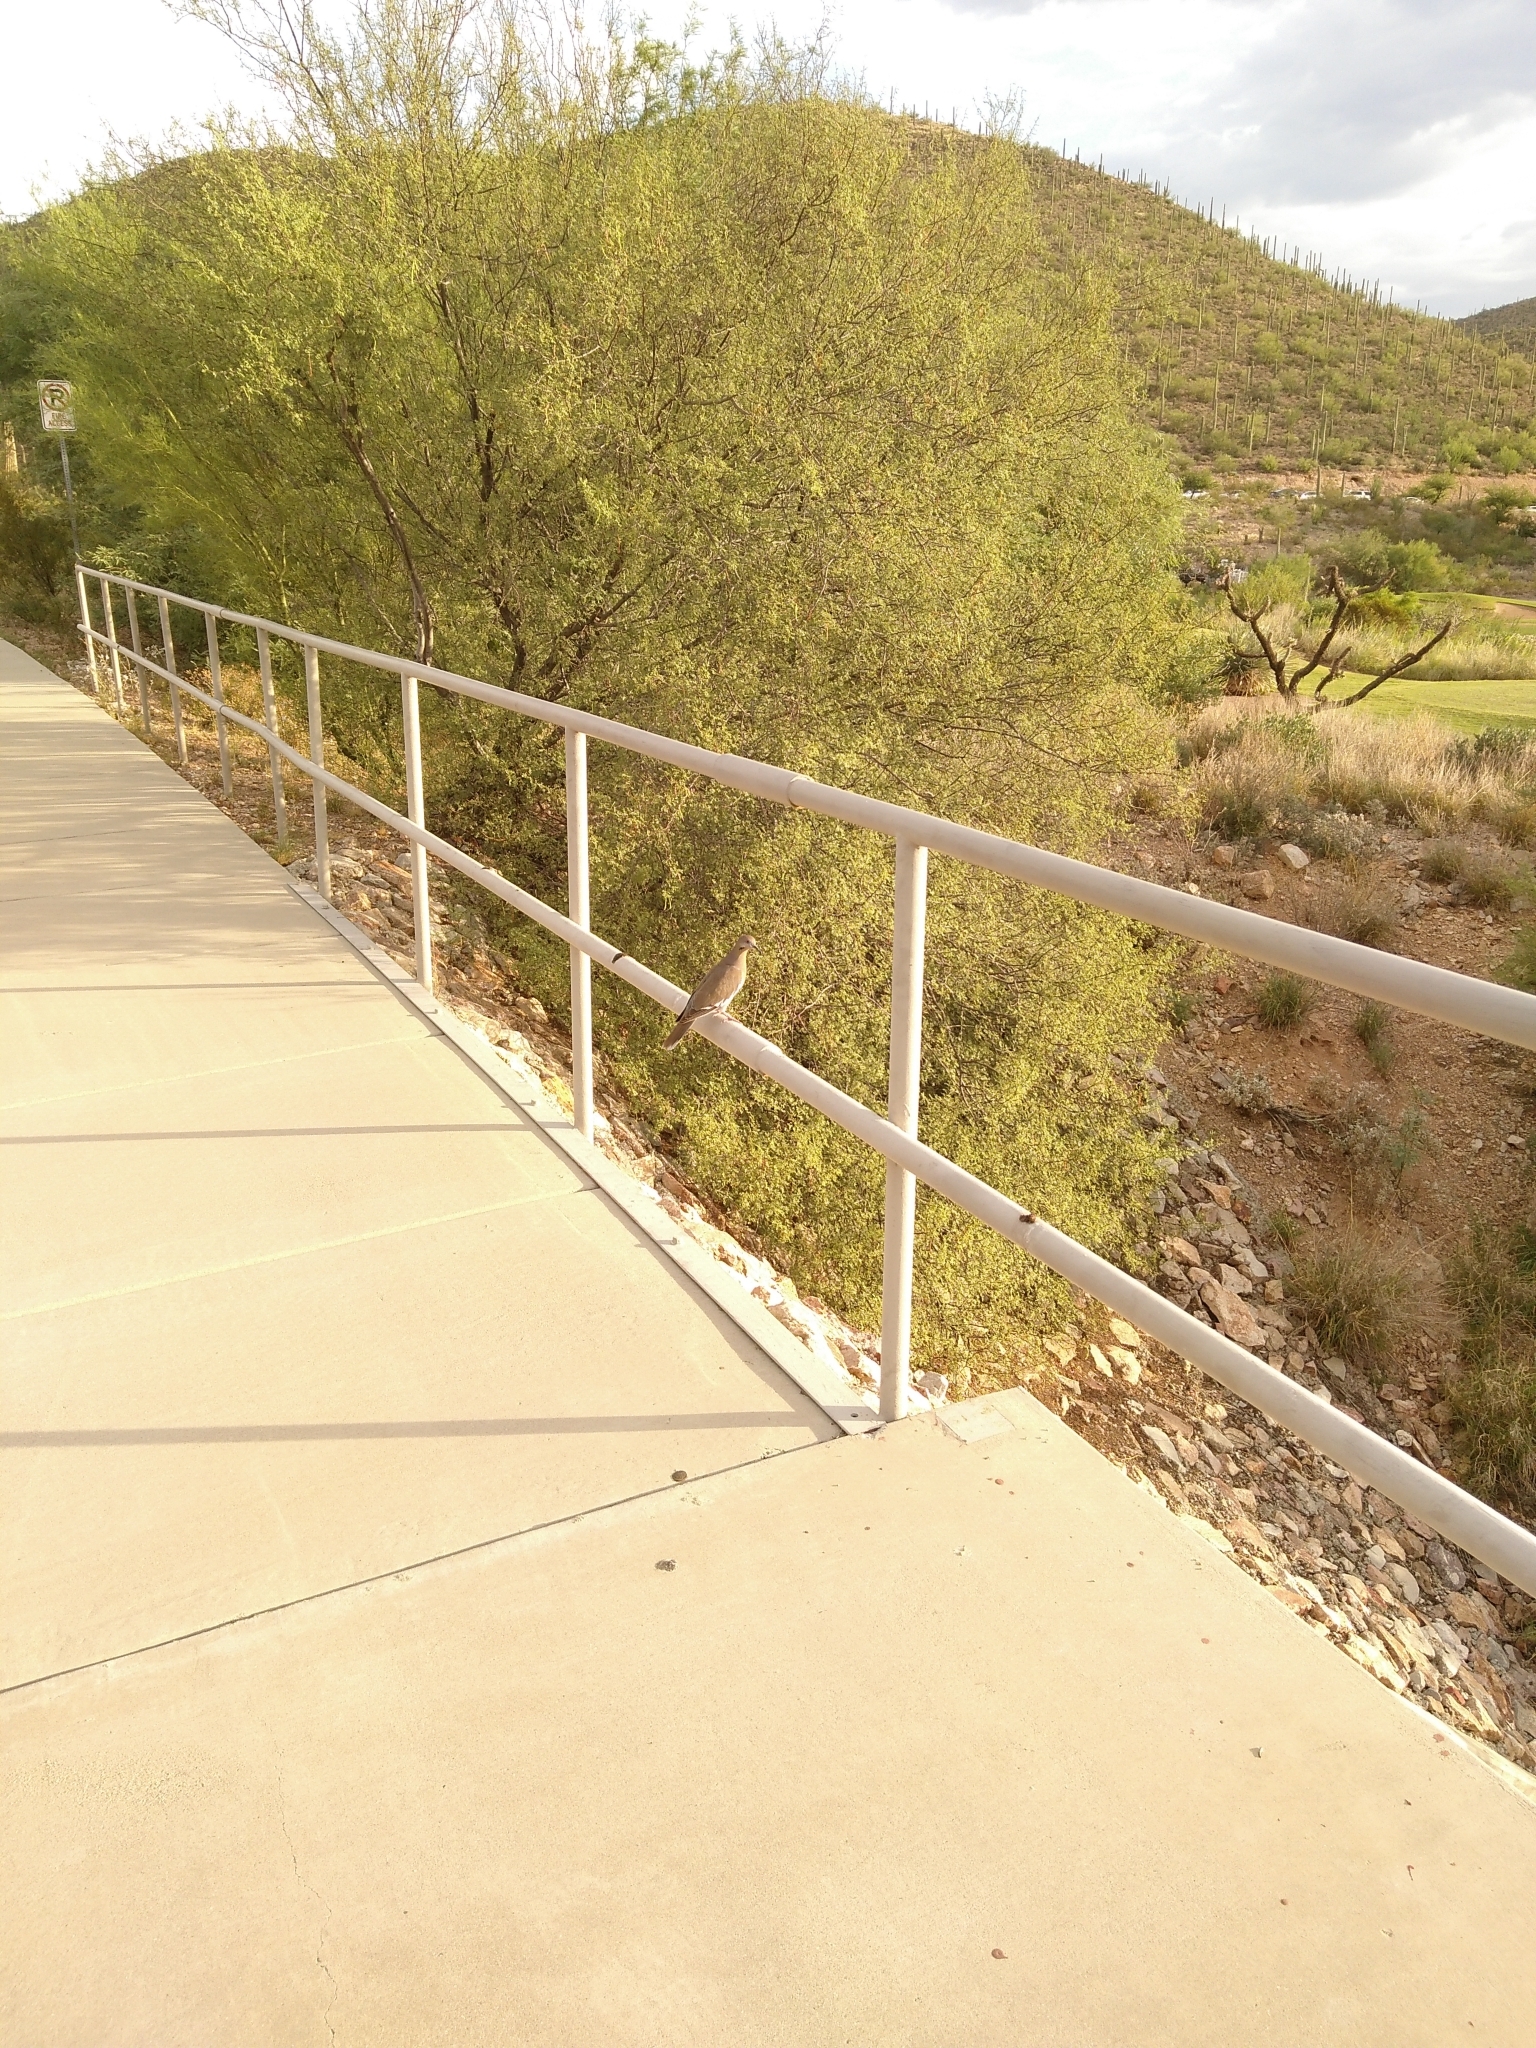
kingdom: Animalia
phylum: Chordata
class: Aves
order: Columbiformes
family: Columbidae
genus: Zenaida
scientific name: Zenaida asiatica
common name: White-winged dove
